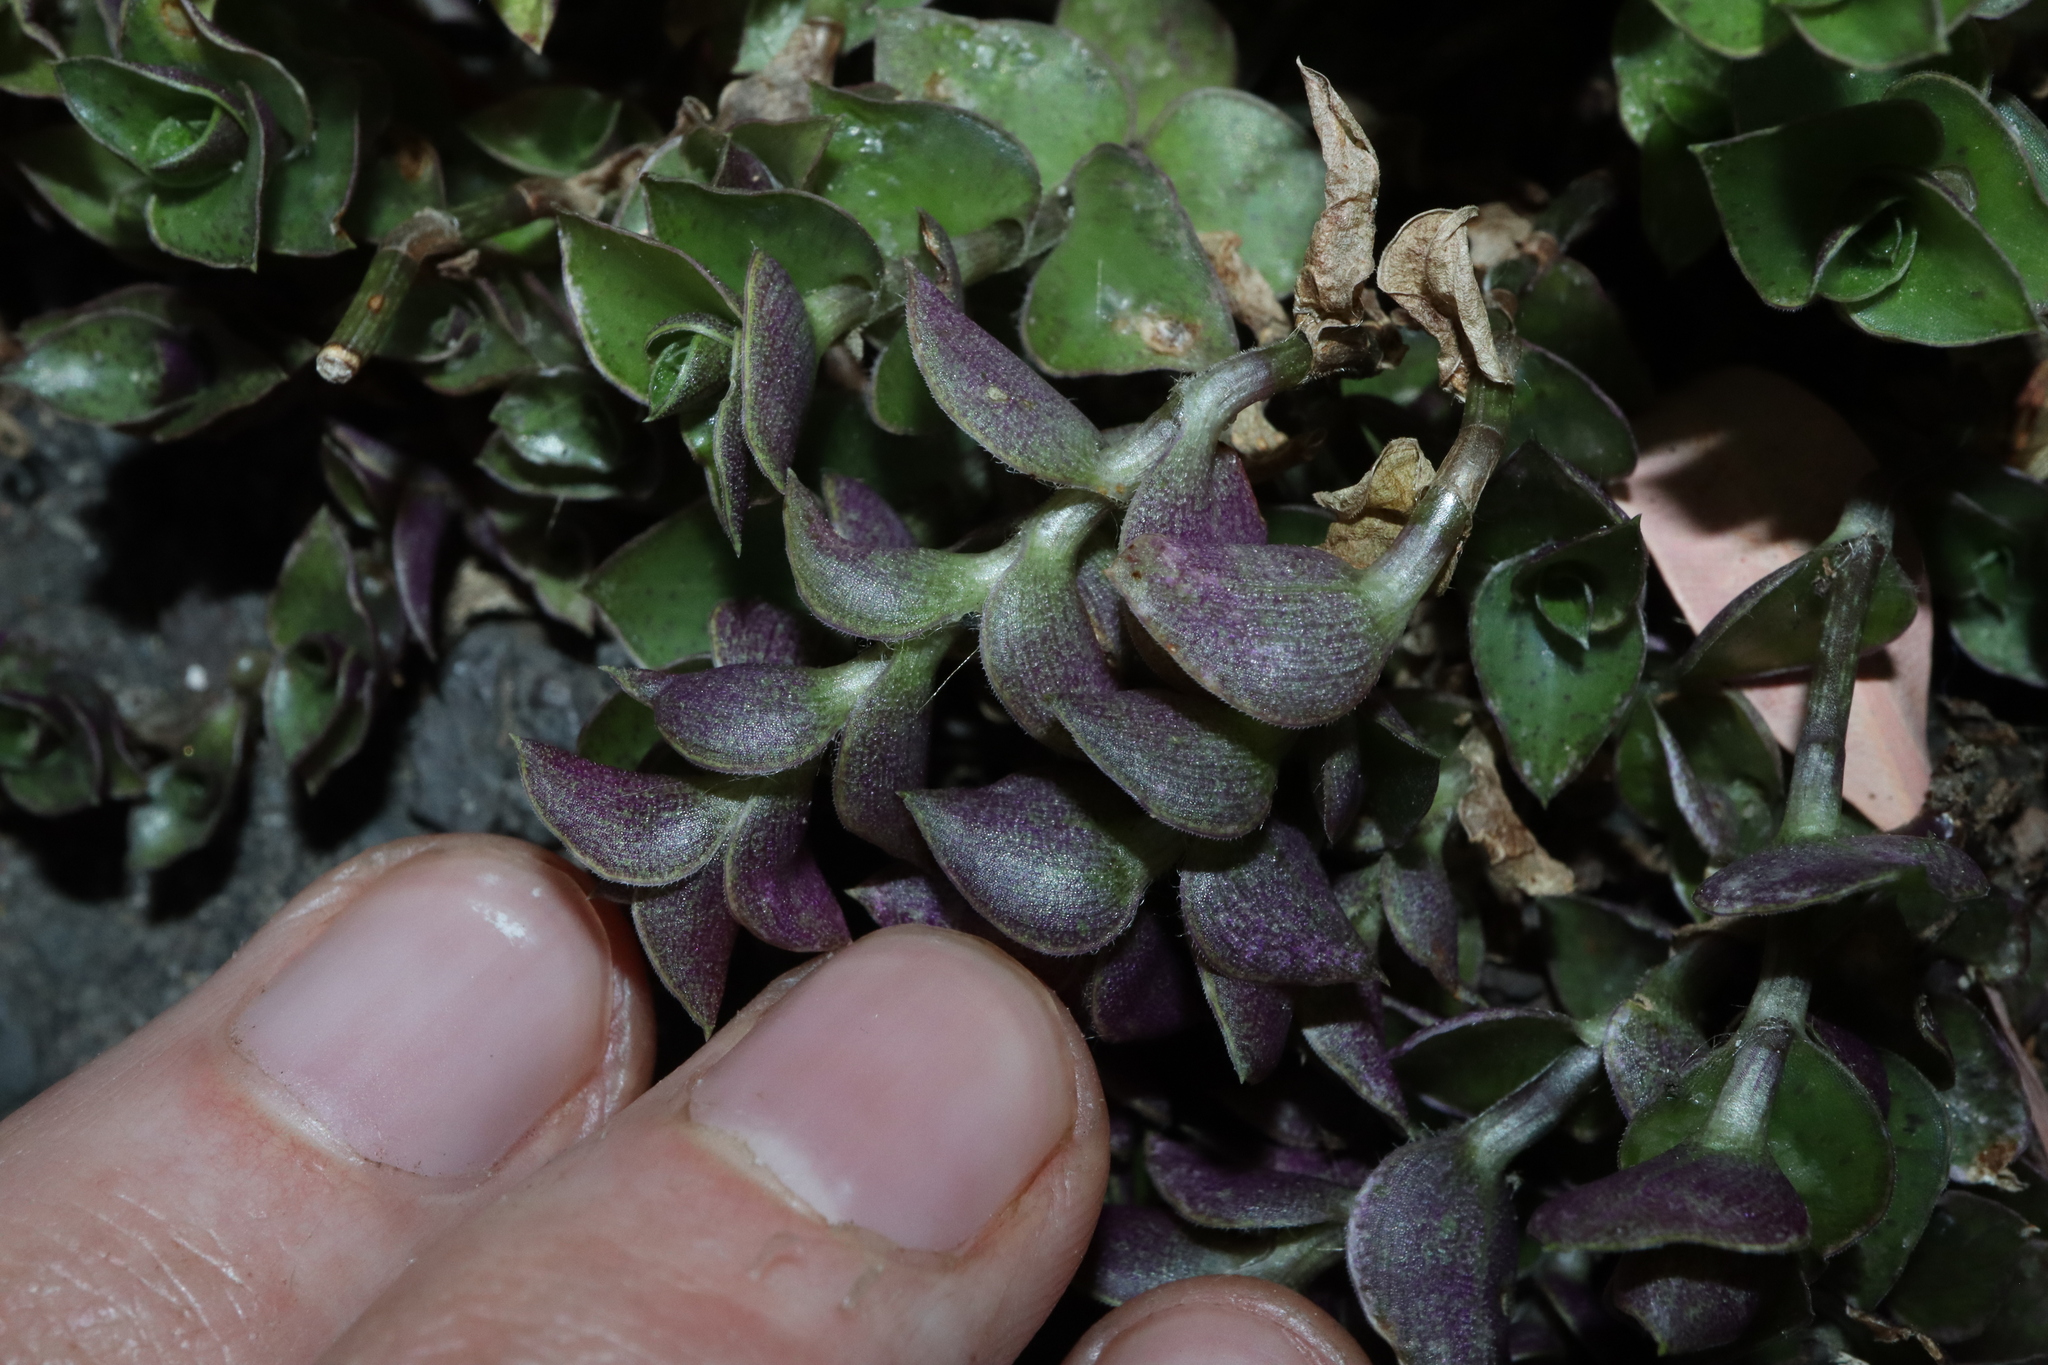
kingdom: Plantae
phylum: Tracheophyta
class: Liliopsida
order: Commelinales
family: Commelinaceae
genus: Callisia
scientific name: Callisia repens
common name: Creeping inchplant
